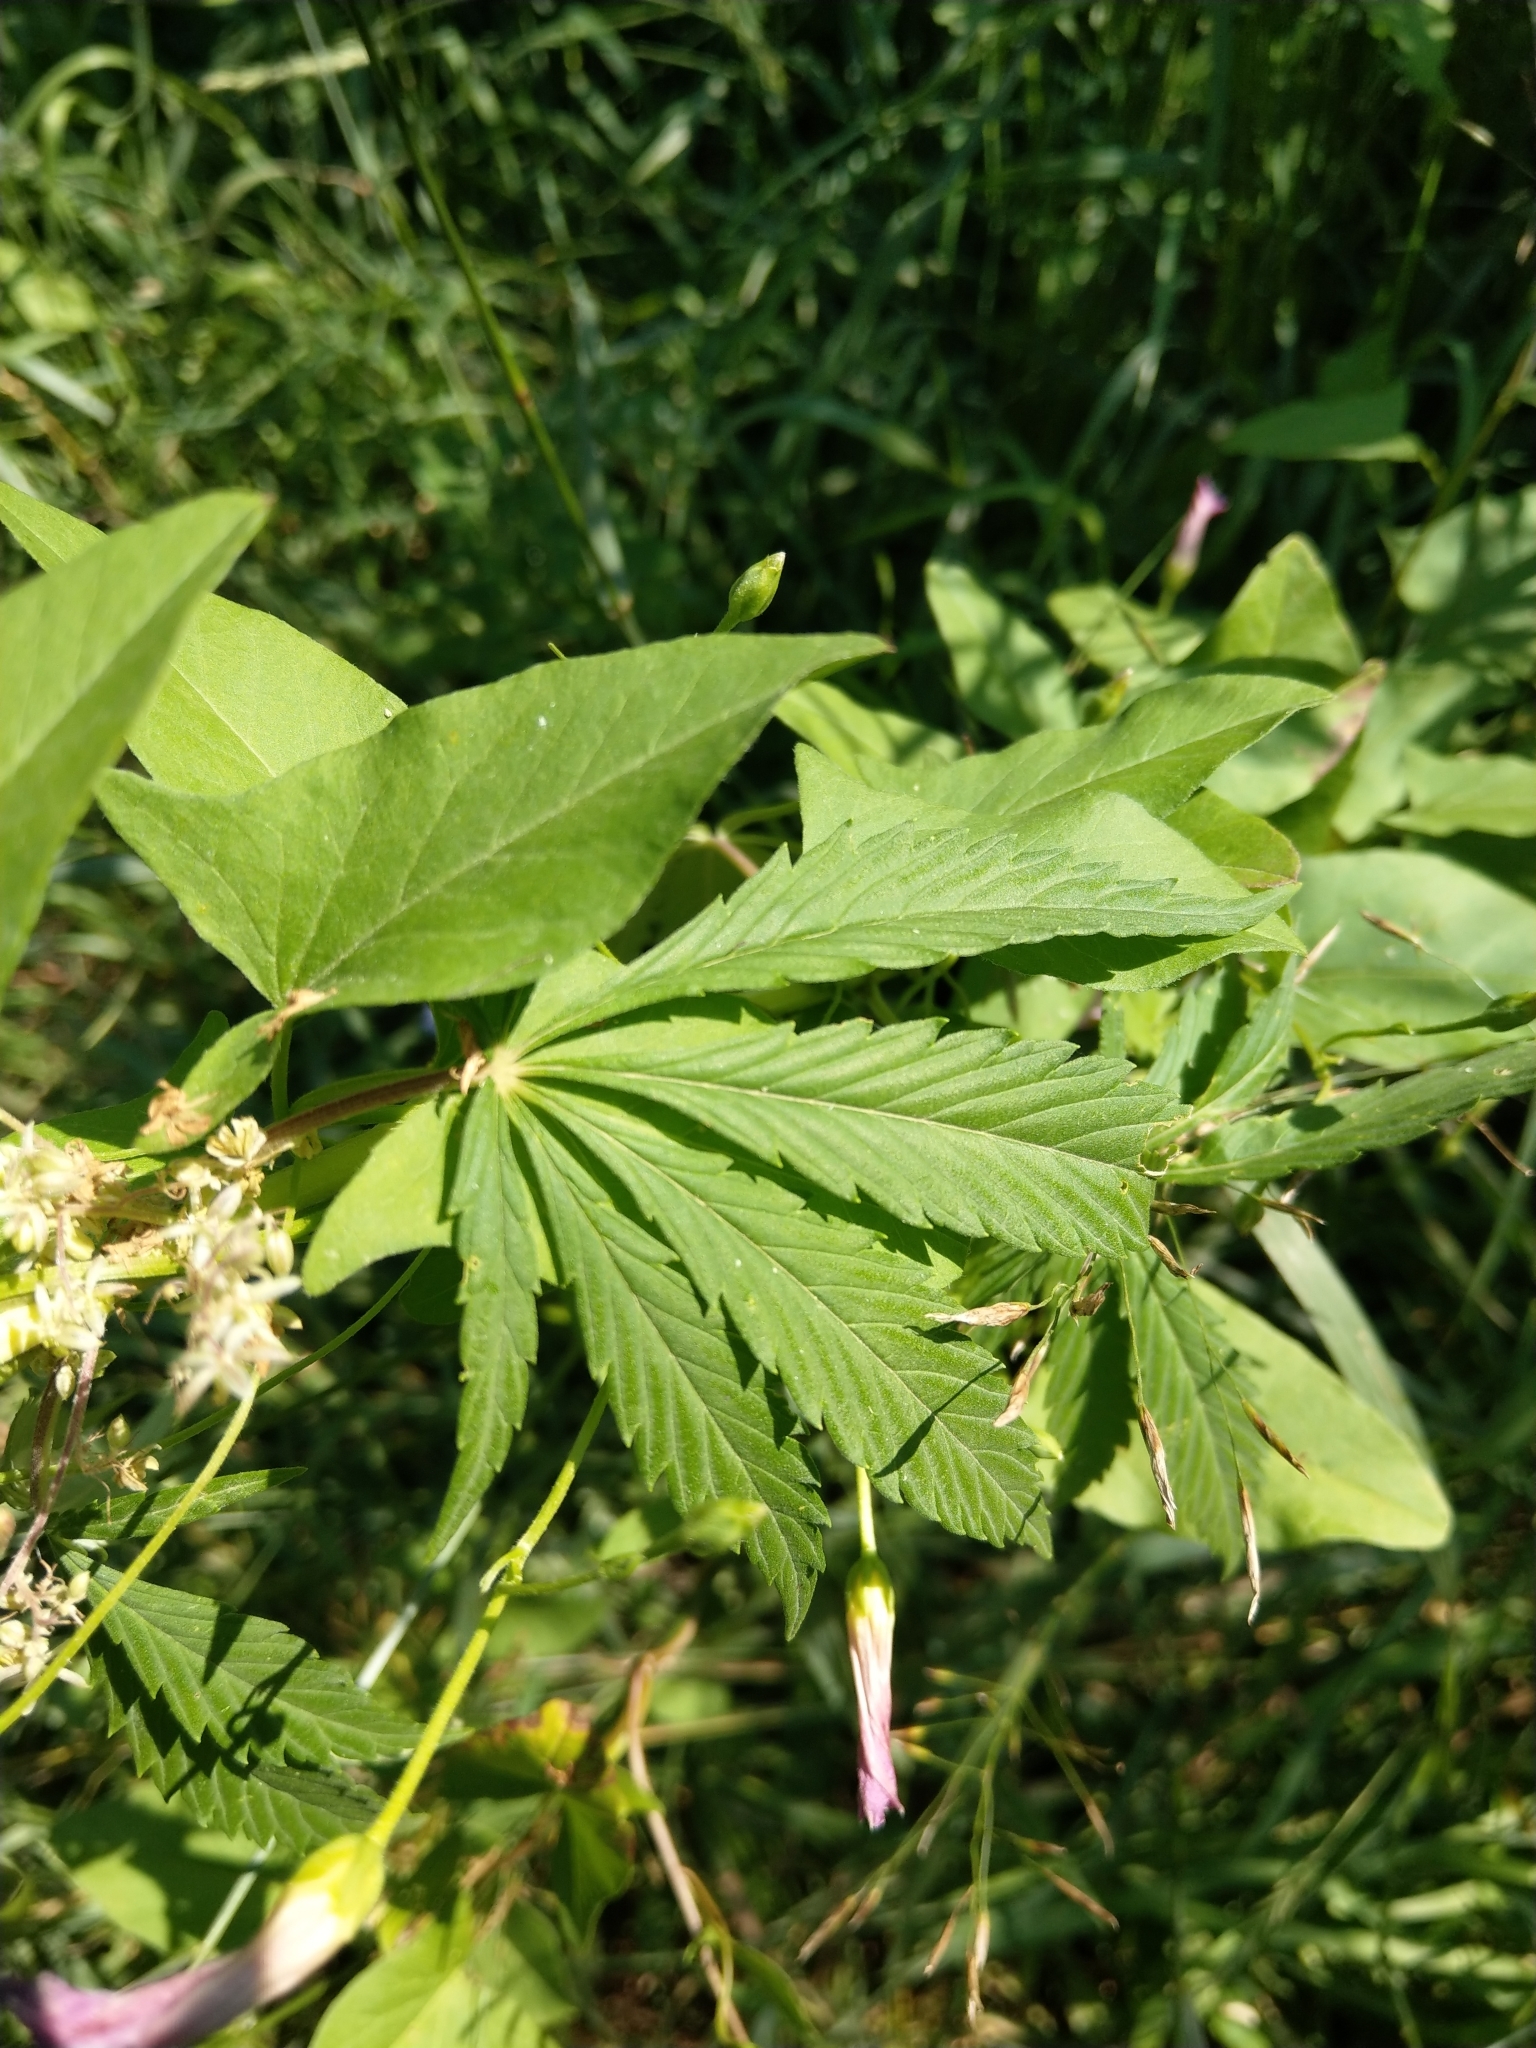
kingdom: Plantae
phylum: Tracheophyta
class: Magnoliopsida
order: Rosales
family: Cannabaceae
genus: Cannabis
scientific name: Cannabis sativa
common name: Hemp
